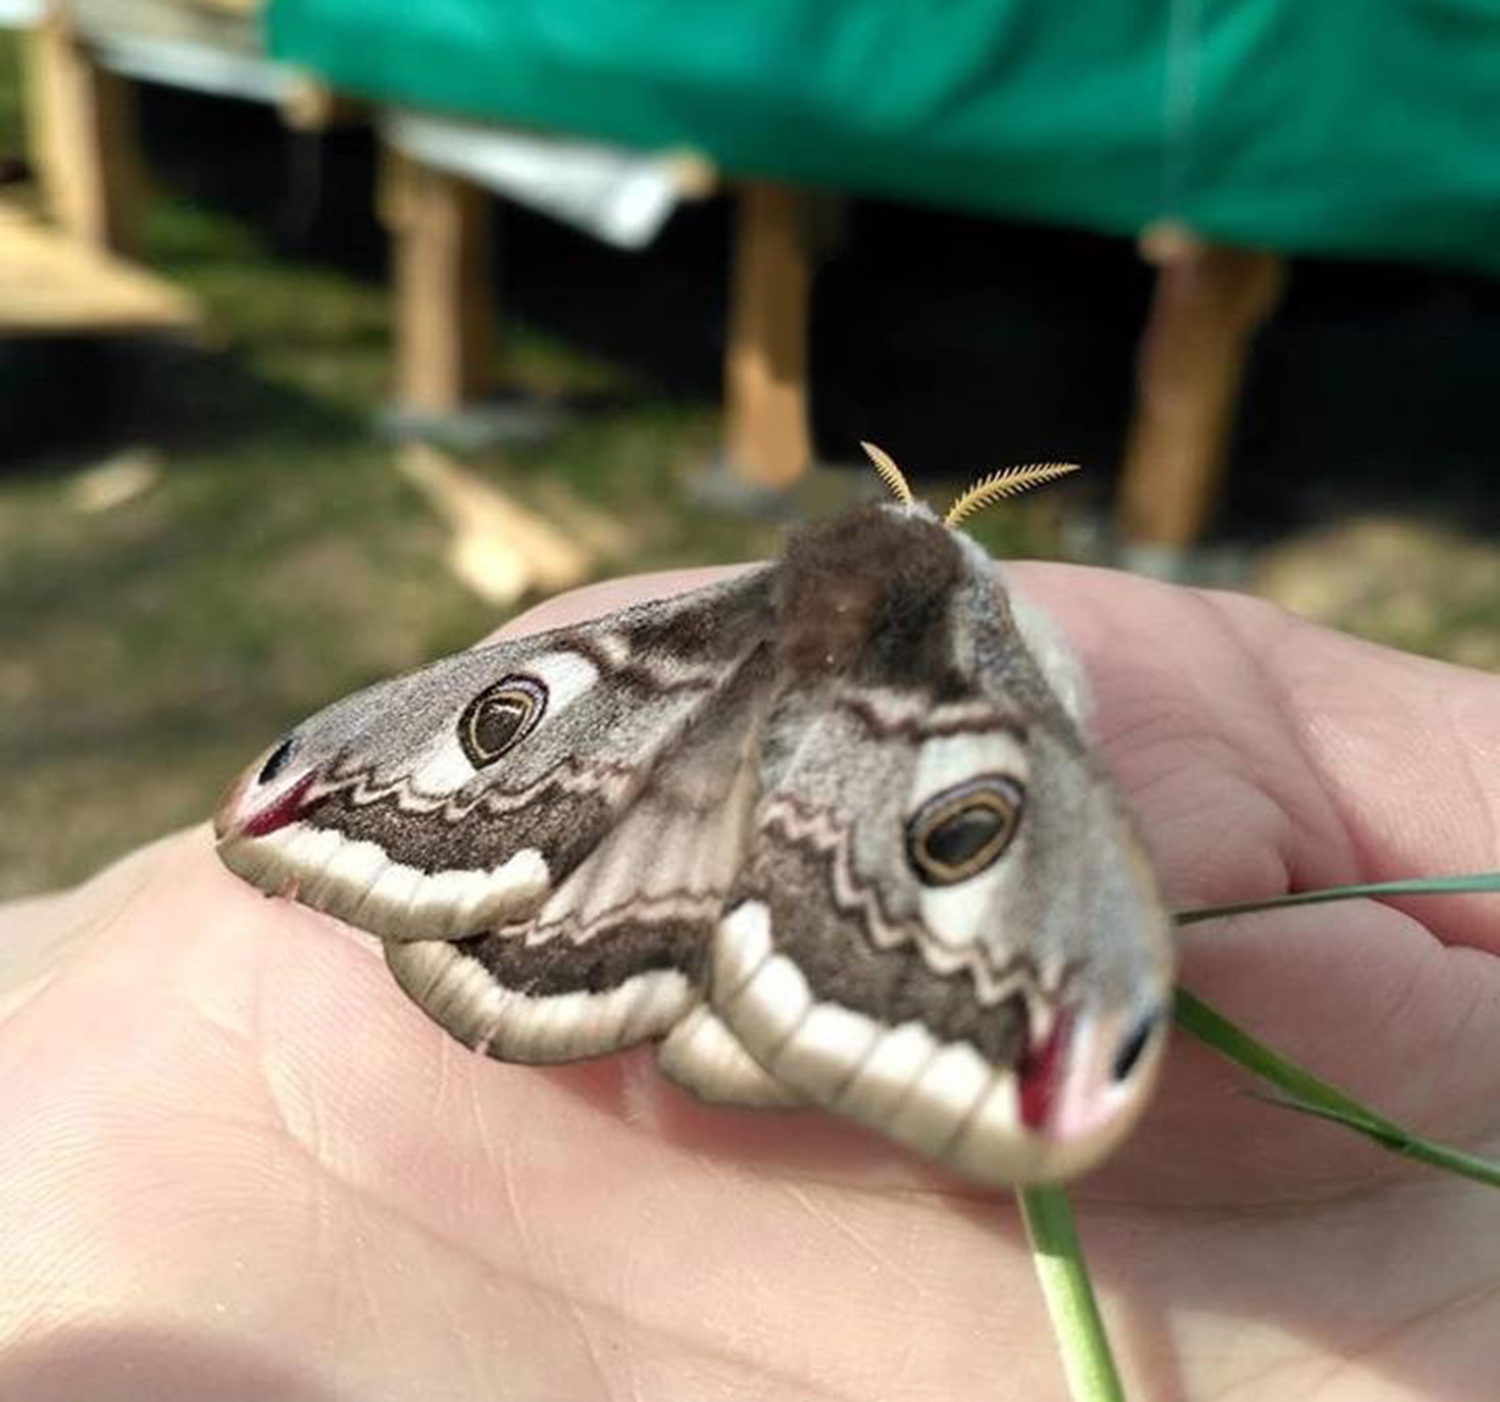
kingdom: Animalia
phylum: Arthropoda
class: Insecta
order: Lepidoptera
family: Saturniidae
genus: Saturnia
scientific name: Saturnia pavonia
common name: Emperor moth
